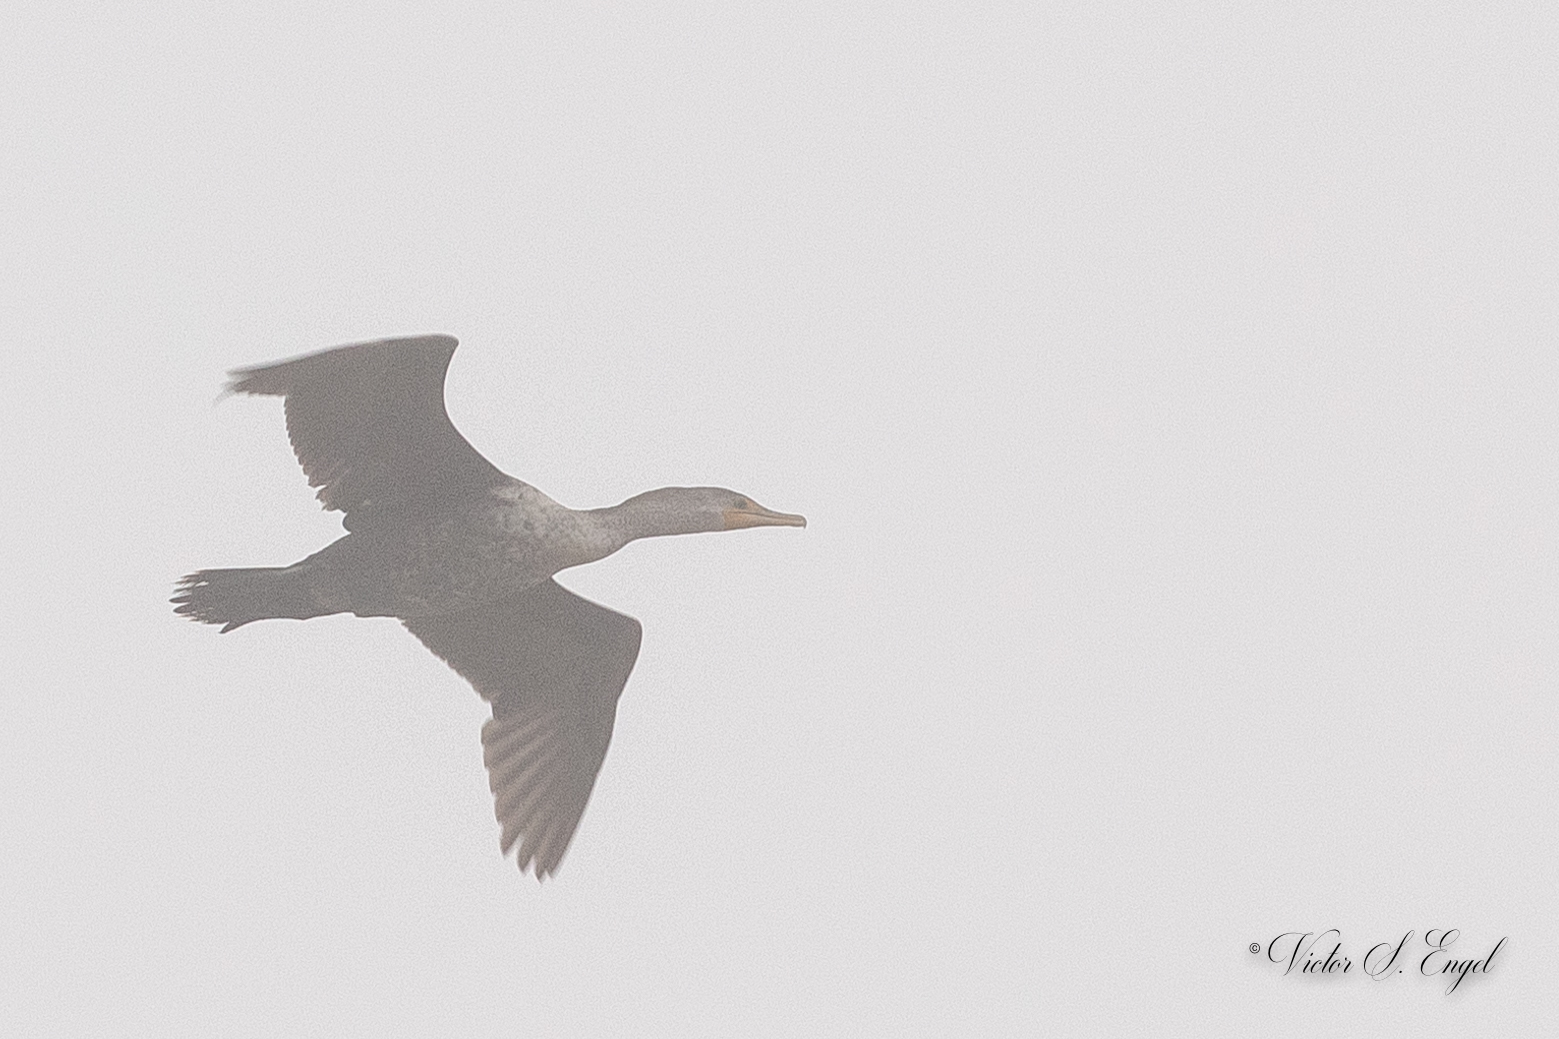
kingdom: Animalia
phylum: Chordata
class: Aves
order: Suliformes
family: Phalacrocoracidae
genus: Phalacrocorax
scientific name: Phalacrocorax auritus
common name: Double-crested cormorant
